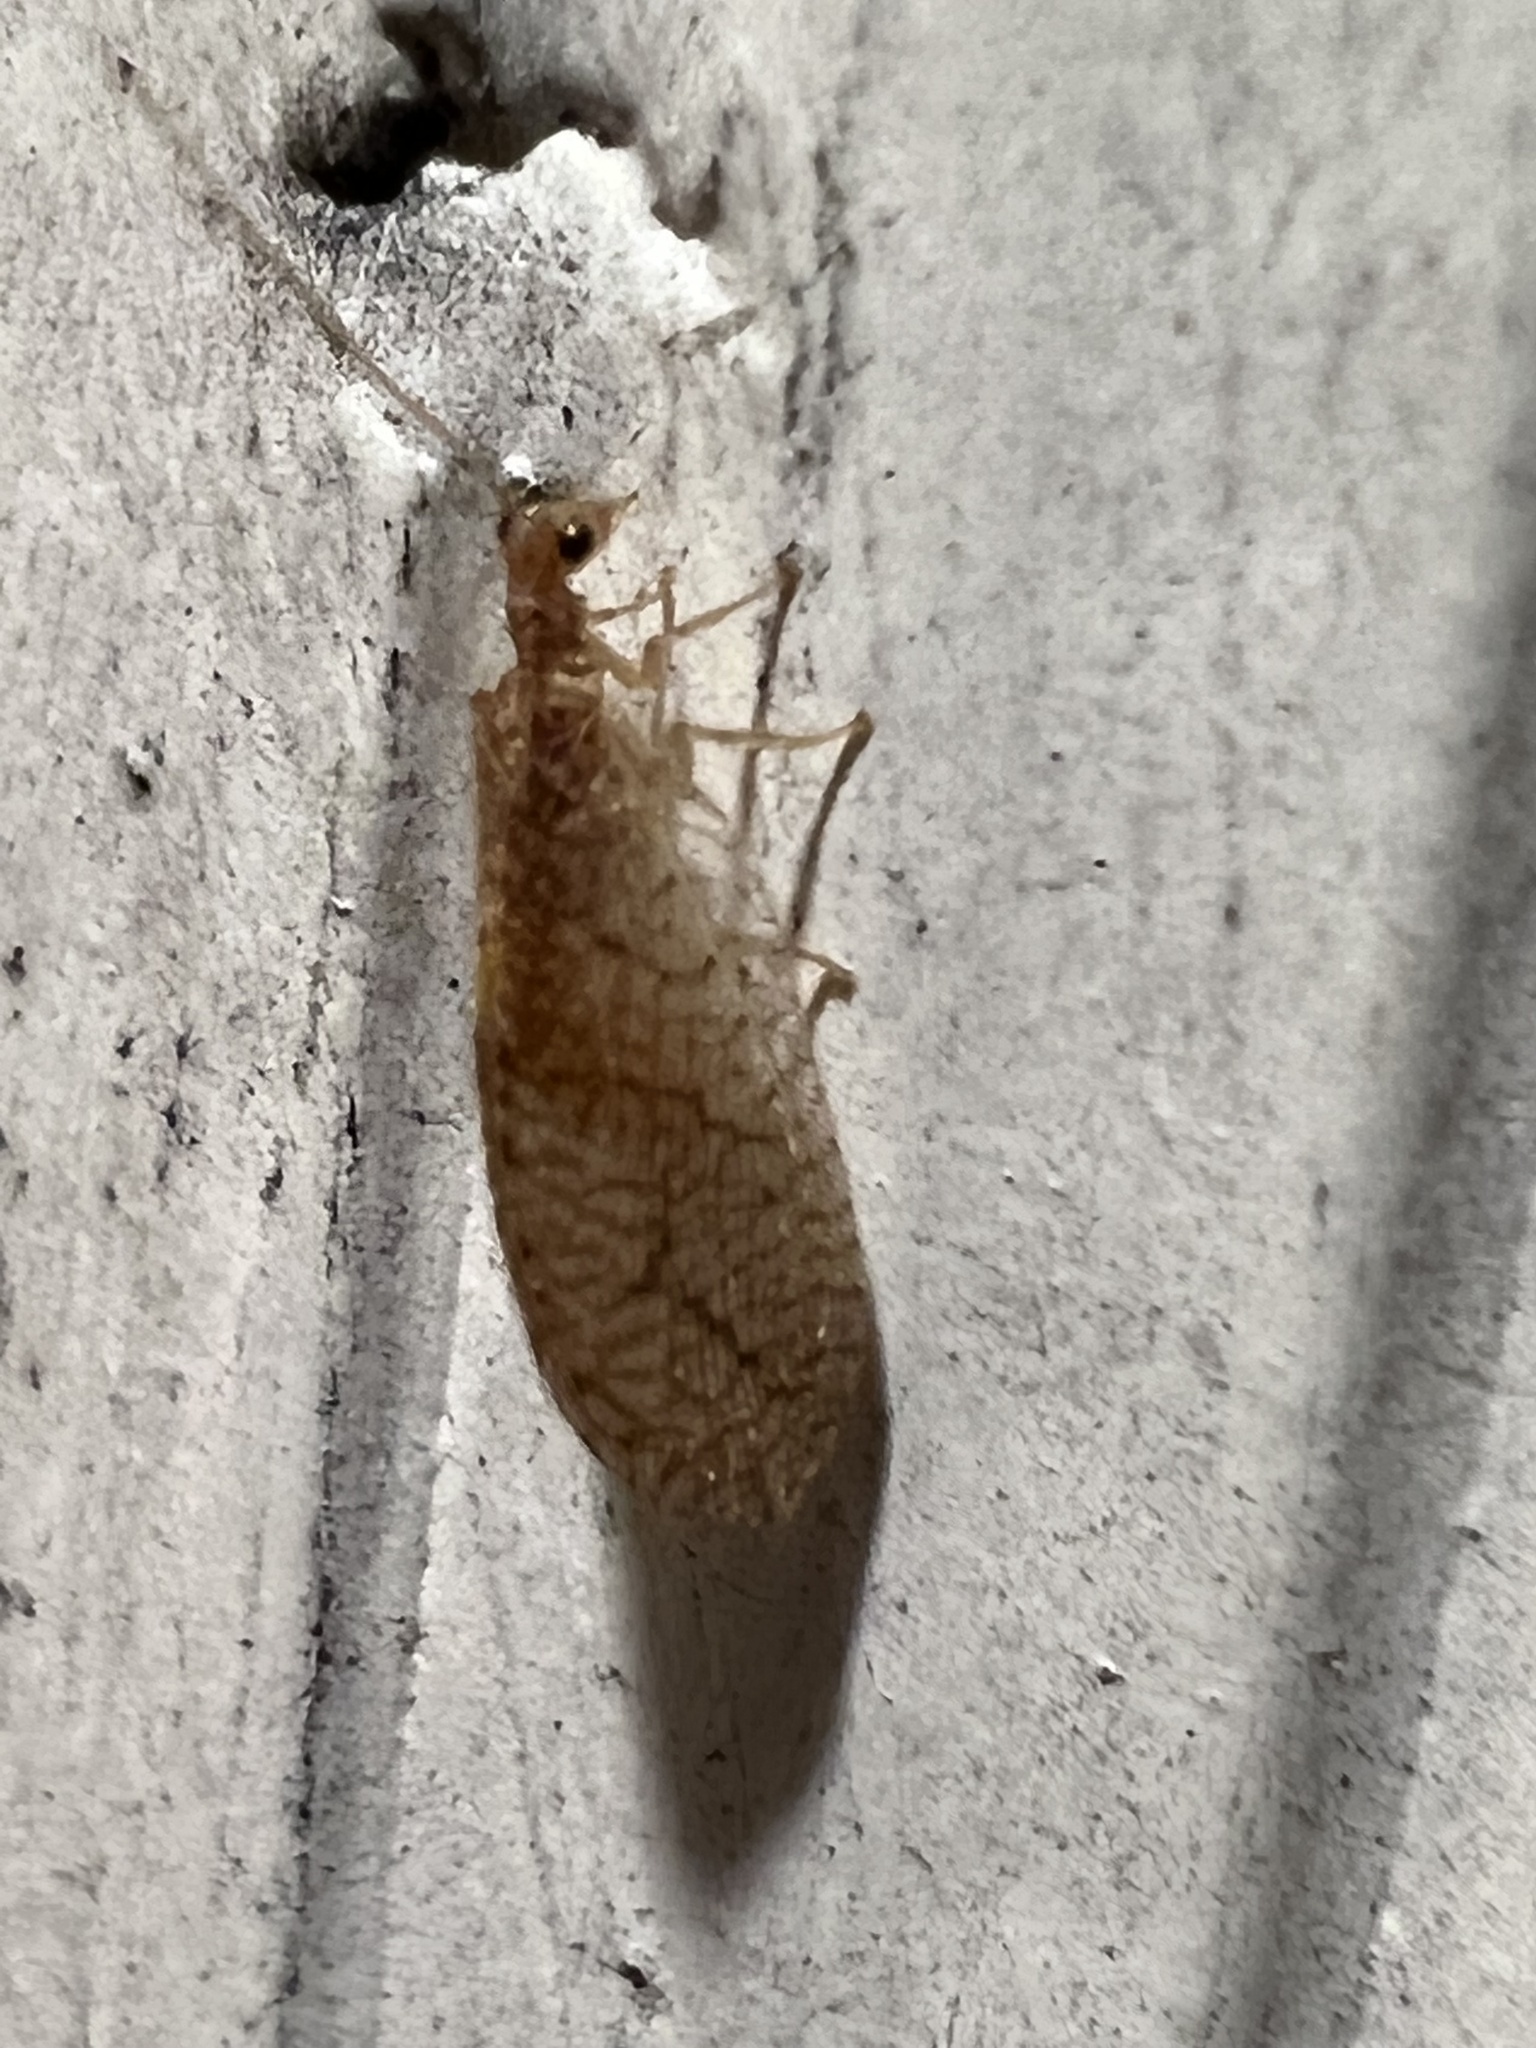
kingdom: Animalia
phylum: Arthropoda
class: Insecta
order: Neuroptera
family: Hemerobiidae
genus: Micromus
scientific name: Micromus posticus
